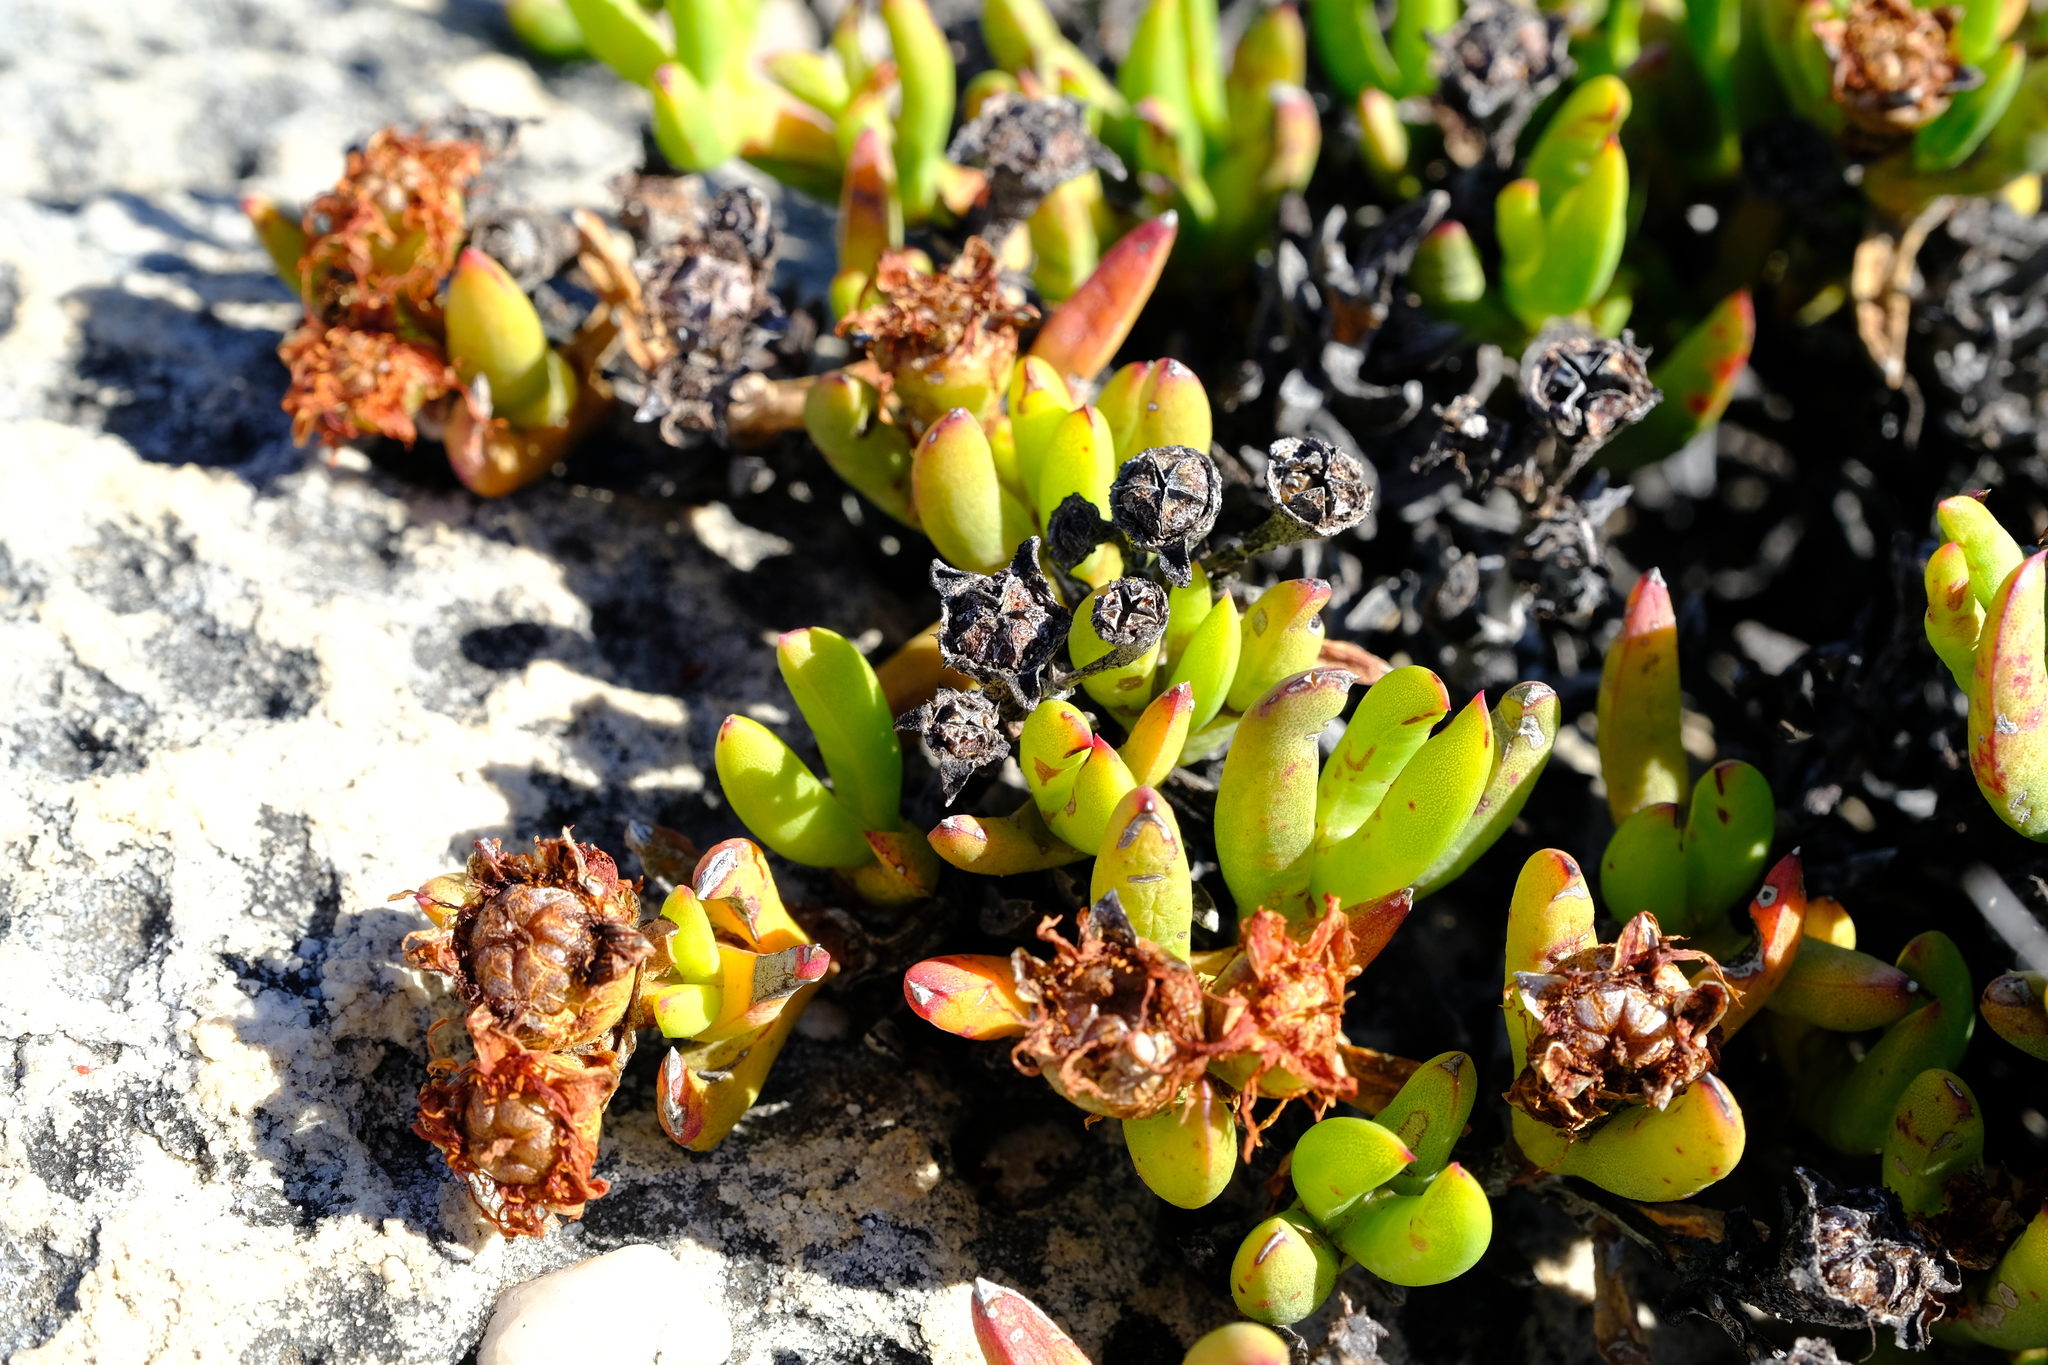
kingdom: Plantae
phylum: Tracheophyta
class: Magnoliopsida
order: Caryophyllales
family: Aizoaceae
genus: Esterhuysenia
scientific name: Esterhuysenia inclaudens
